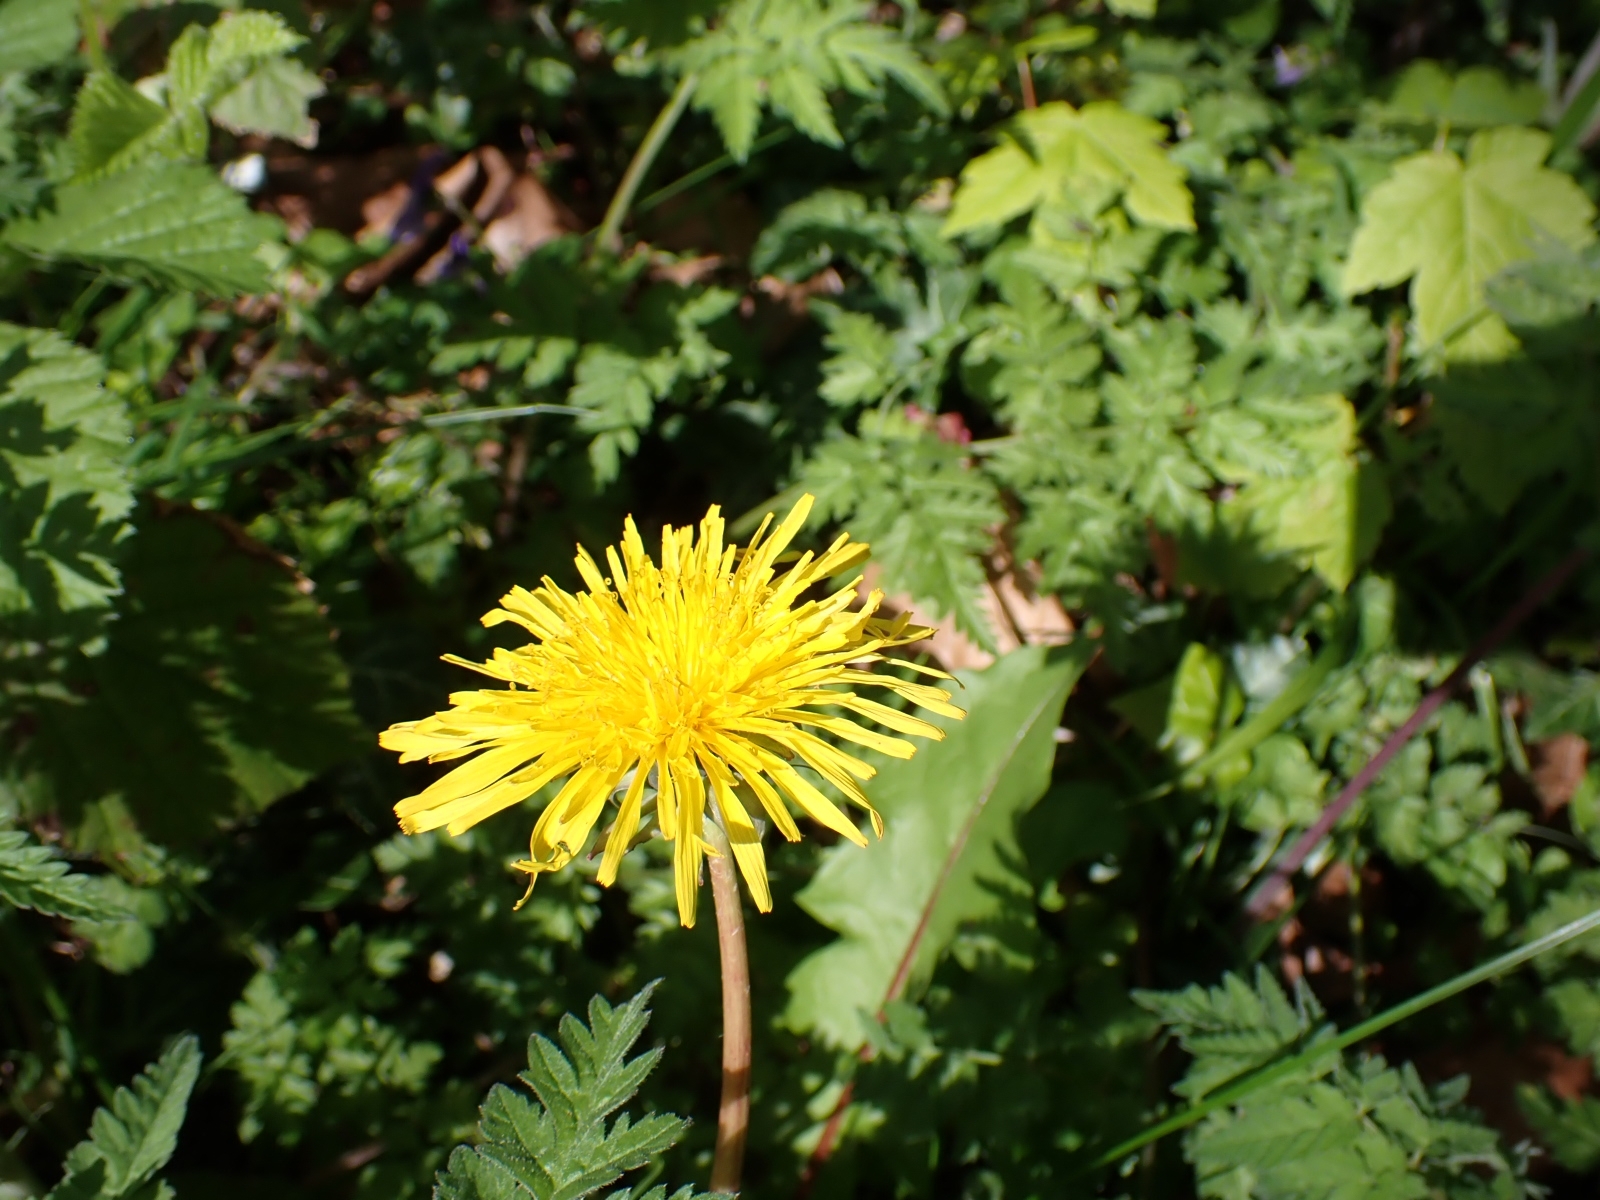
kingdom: Plantae
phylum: Tracheophyta
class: Magnoliopsida
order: Asterales
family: Asteraceae
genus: Taraxacum
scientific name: Taraxacum officinale
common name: Common dandelion
